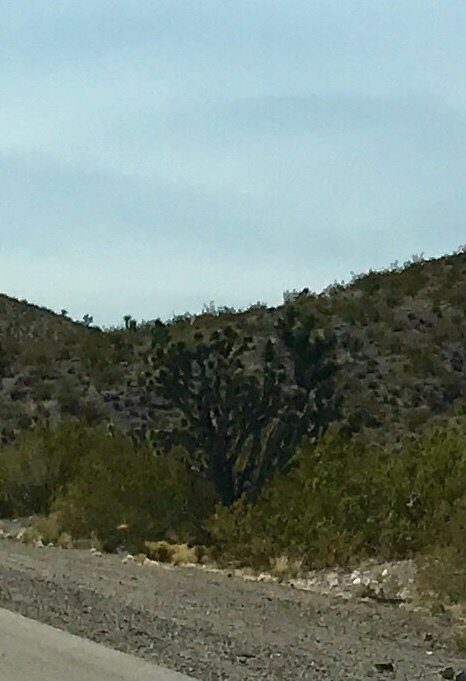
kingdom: Plantae
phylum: Tracheophyta
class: Liliopsida
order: Asparagales
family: Asparagaceae
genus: Yucca
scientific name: Yucca brevifolia
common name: Joshua tree
